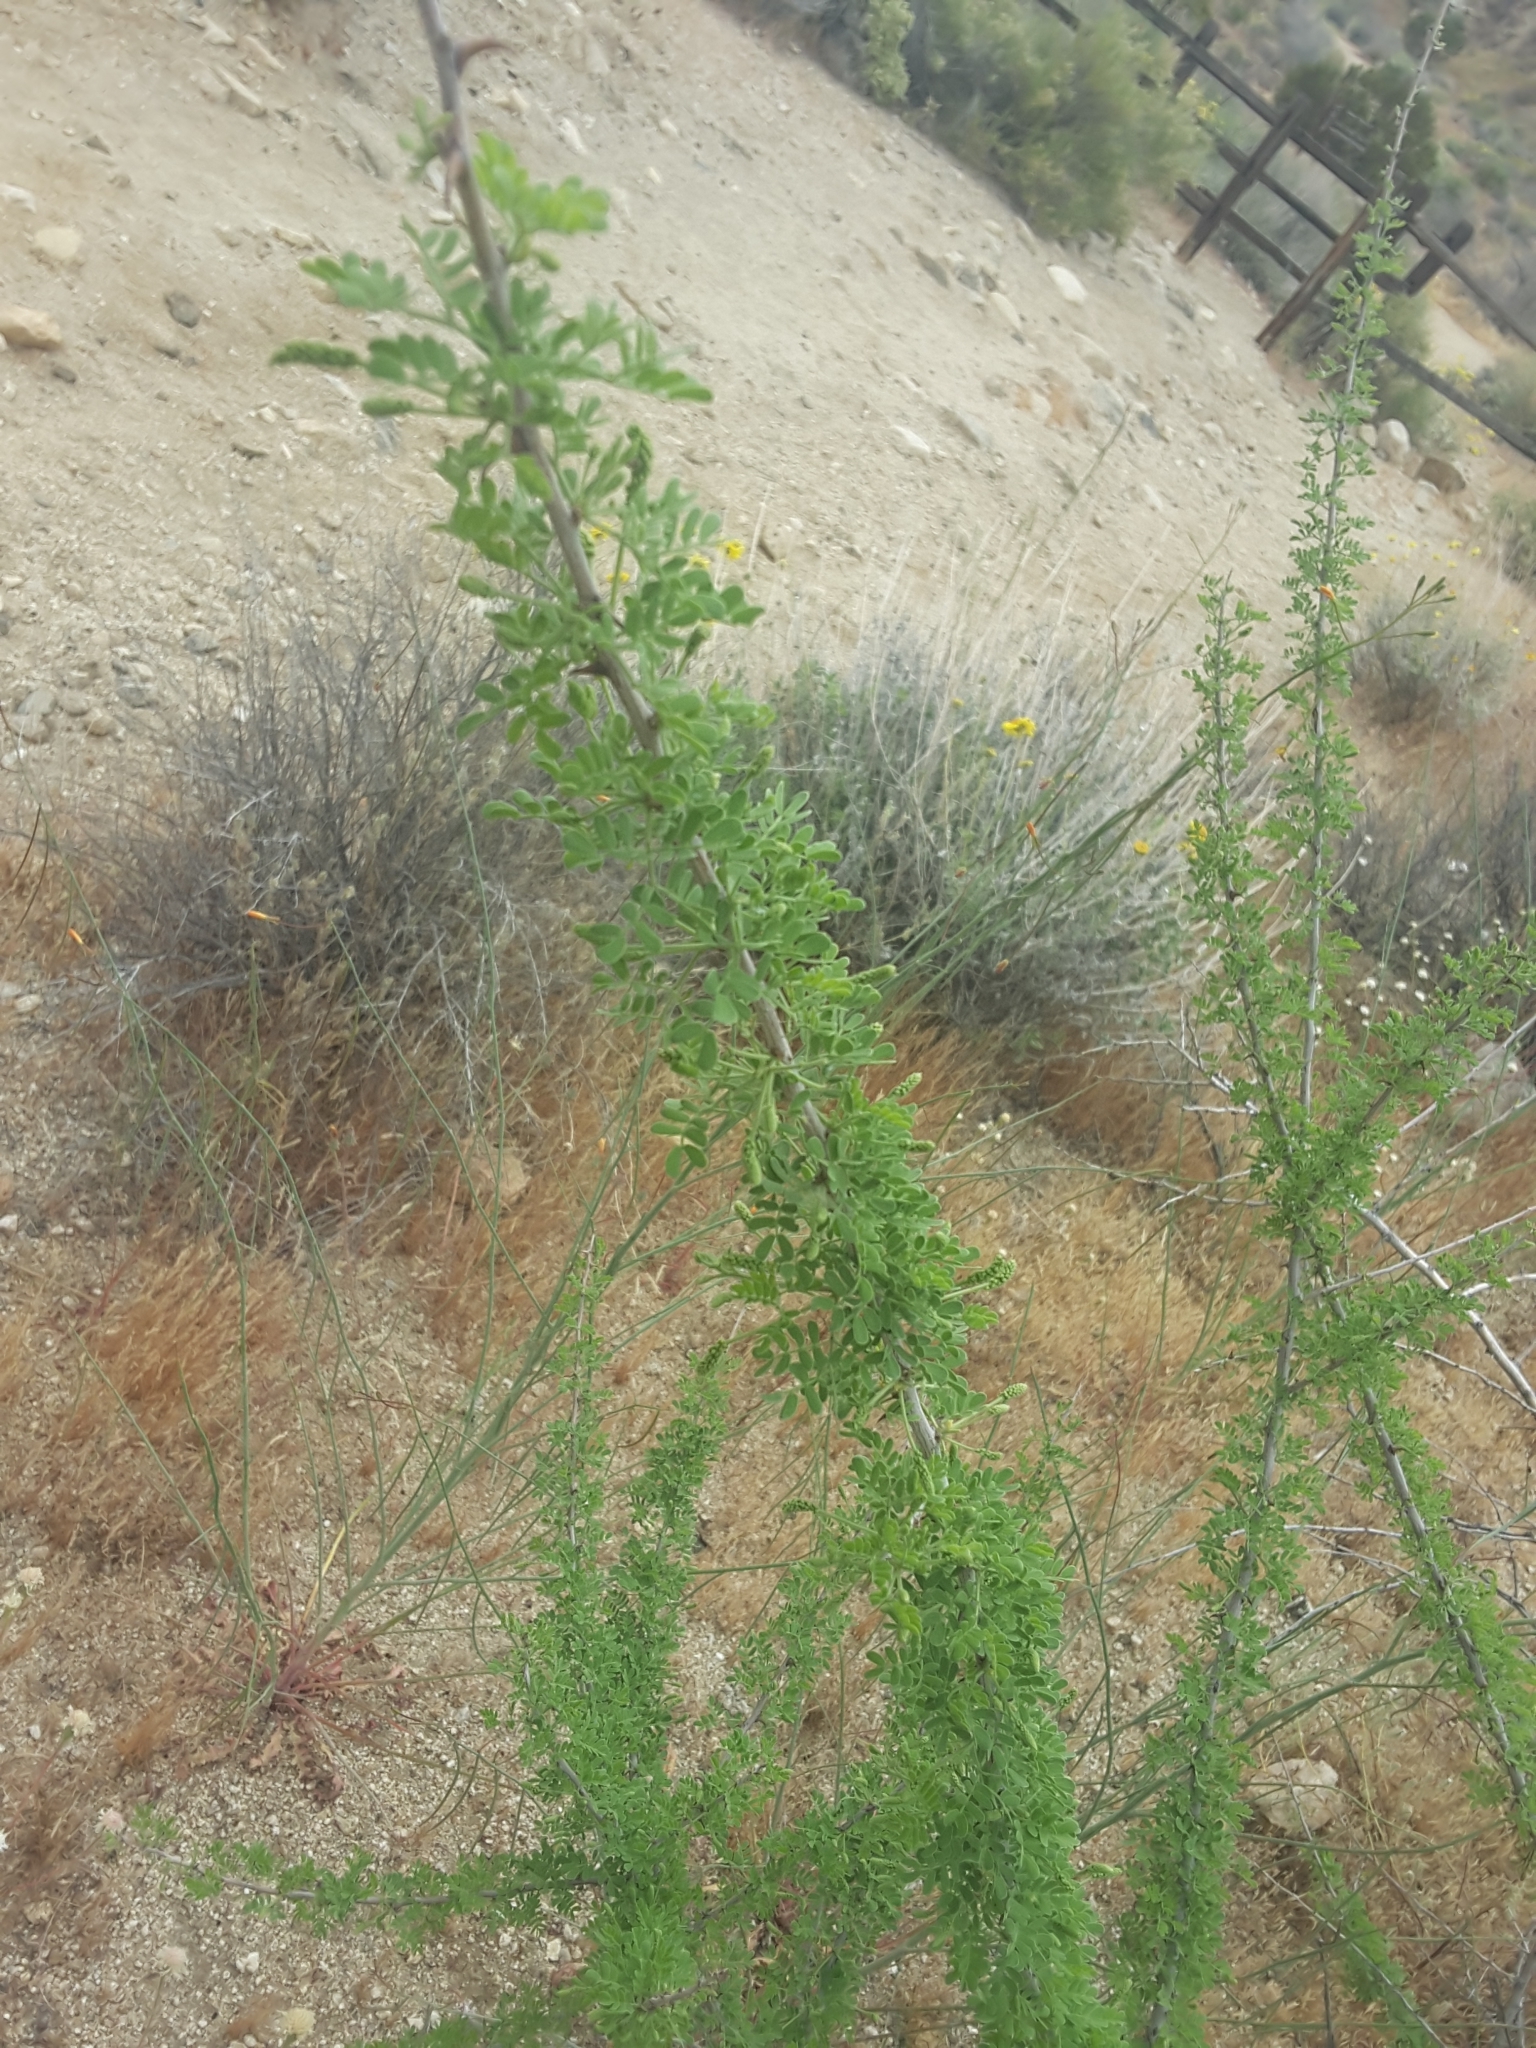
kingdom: Plantae
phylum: Tracheophyta
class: Magnoliopsida
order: Fabales
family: Fabaceae
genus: Senegalia
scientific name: Senegalia greggii
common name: Texas-mimosa
